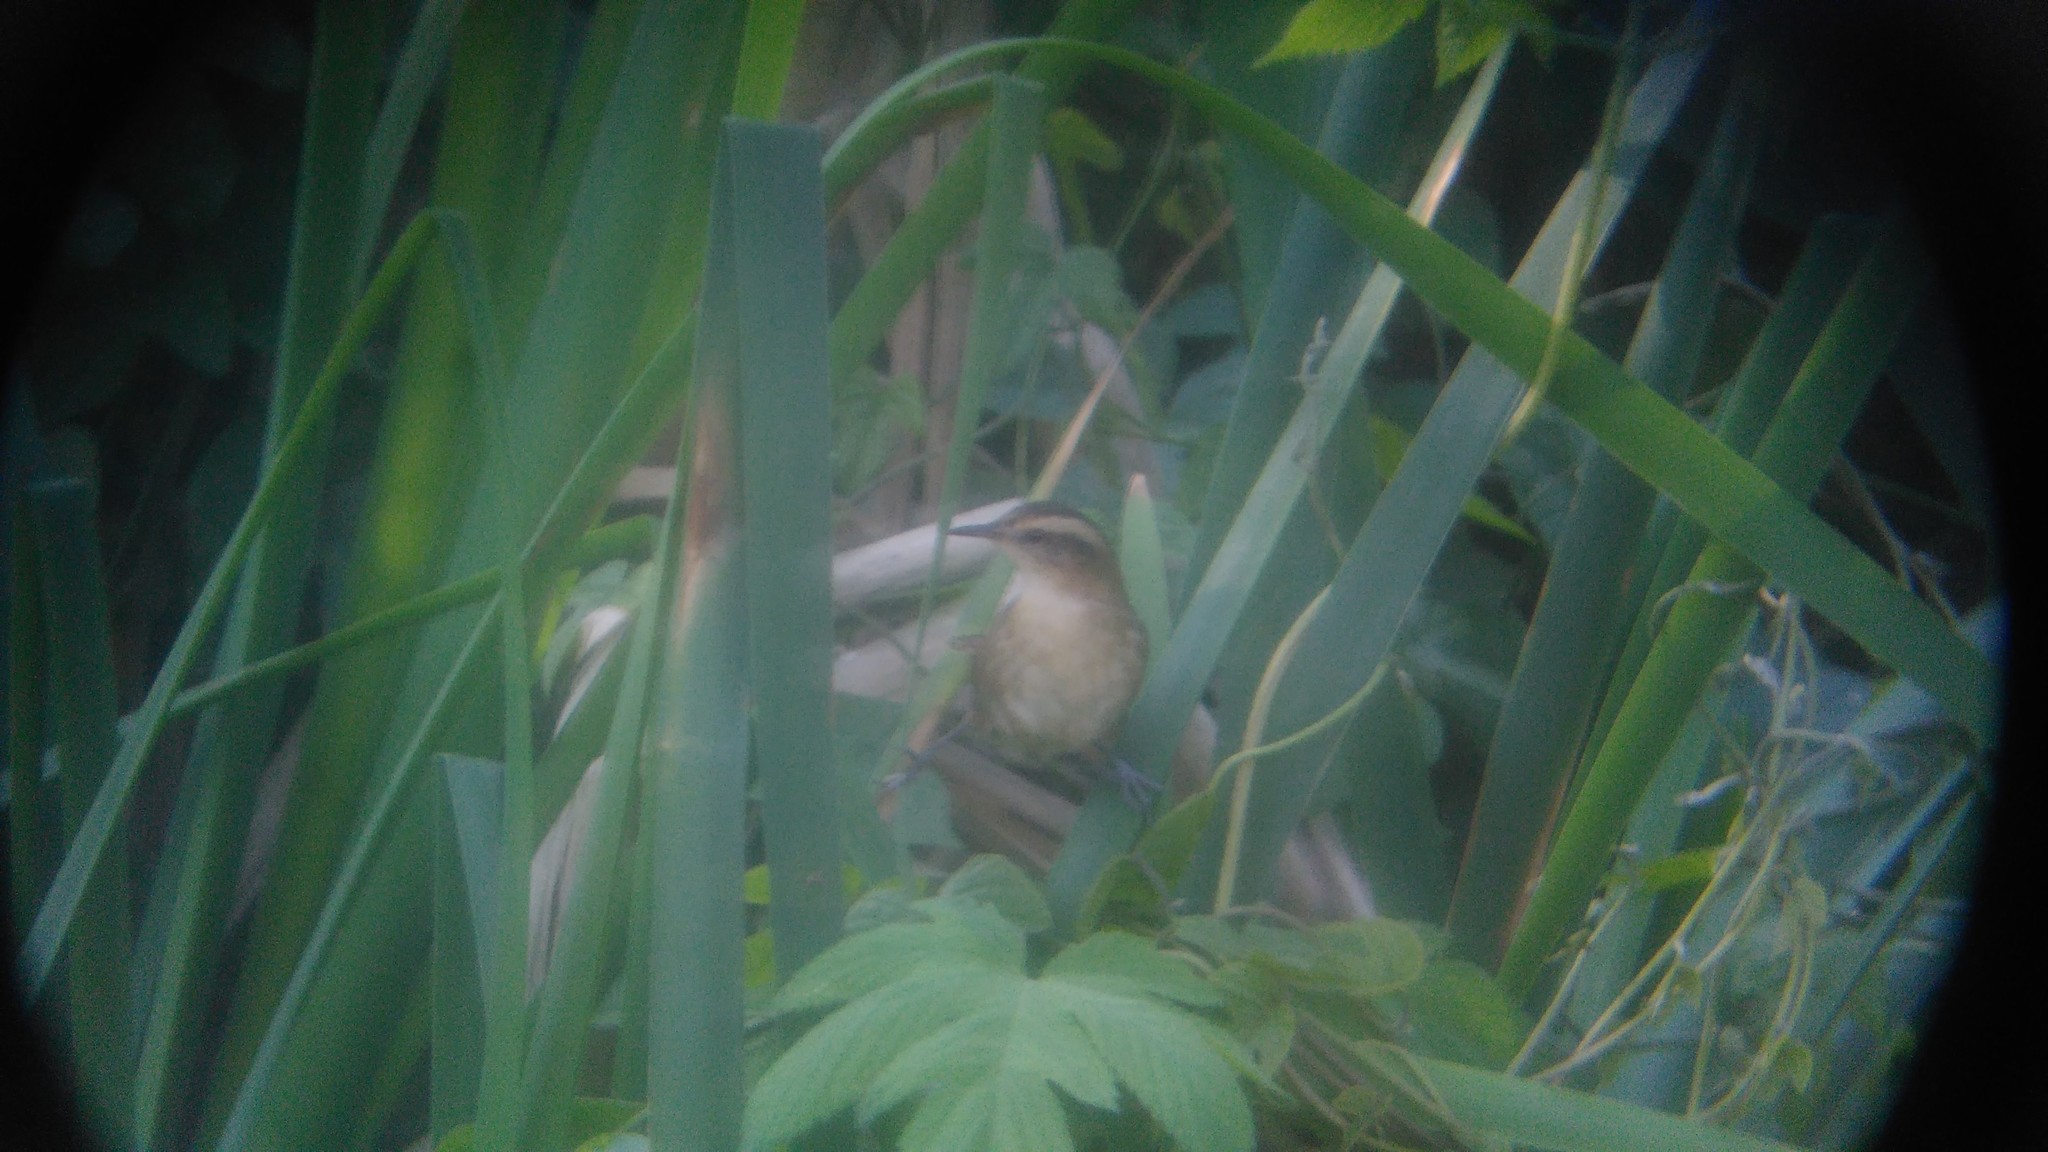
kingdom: Animalia
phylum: Chordata
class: Aves
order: Passeriformes
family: Furnariidae
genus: Phleocryptes
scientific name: Phleocryptes melanops
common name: Wren-like rushbird
